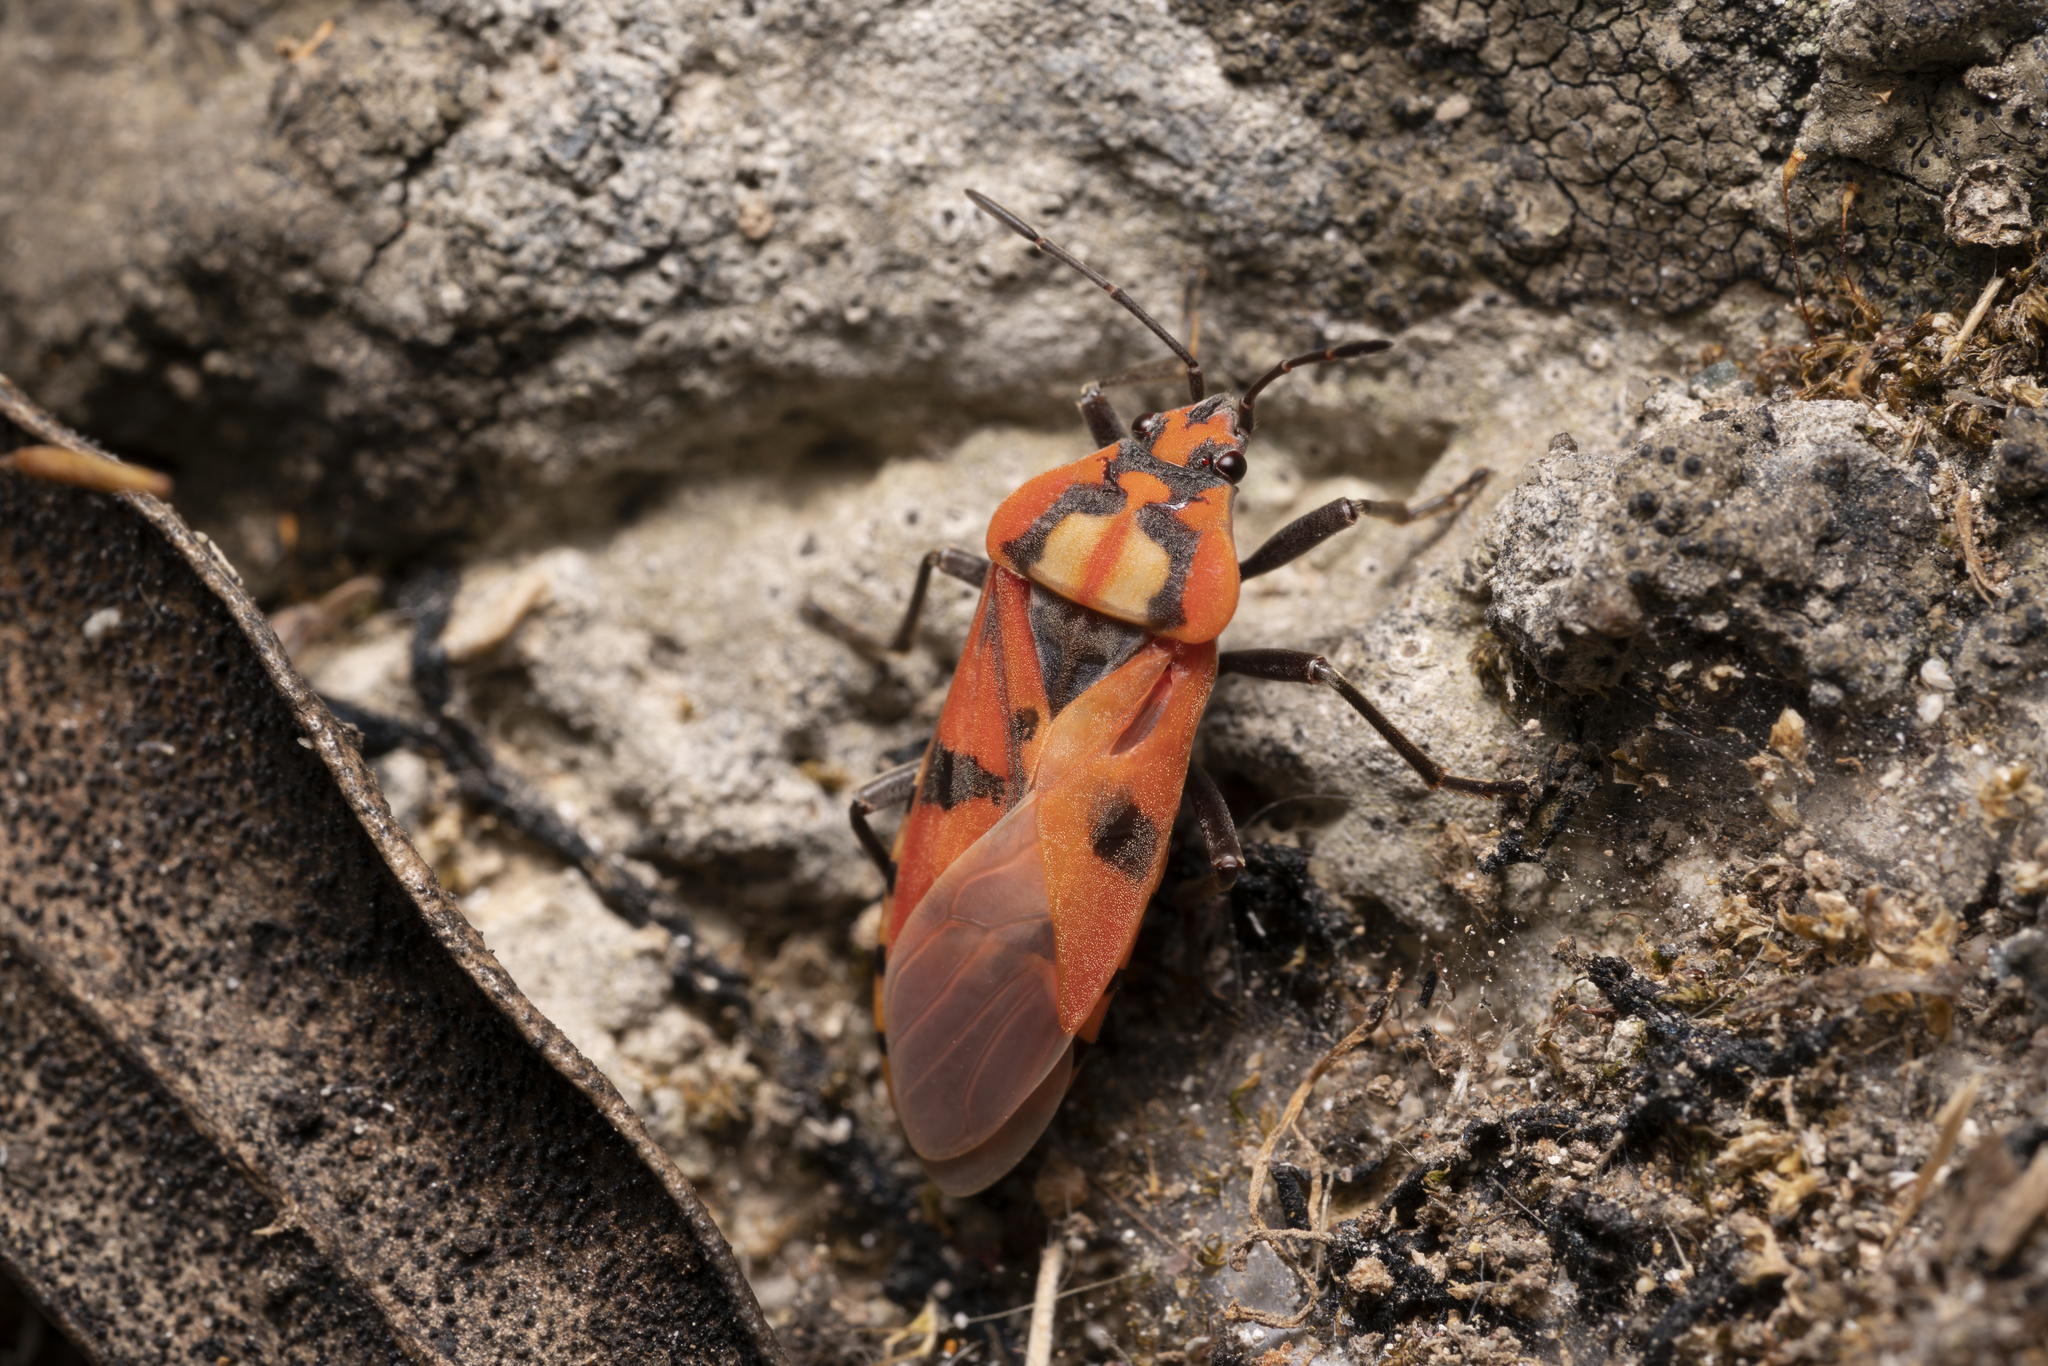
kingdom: Animalia
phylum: Arthropoda
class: Insecta
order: Hemiptera
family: Lygaeidae
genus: Spilostethus
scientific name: Spilostethus pandurus
